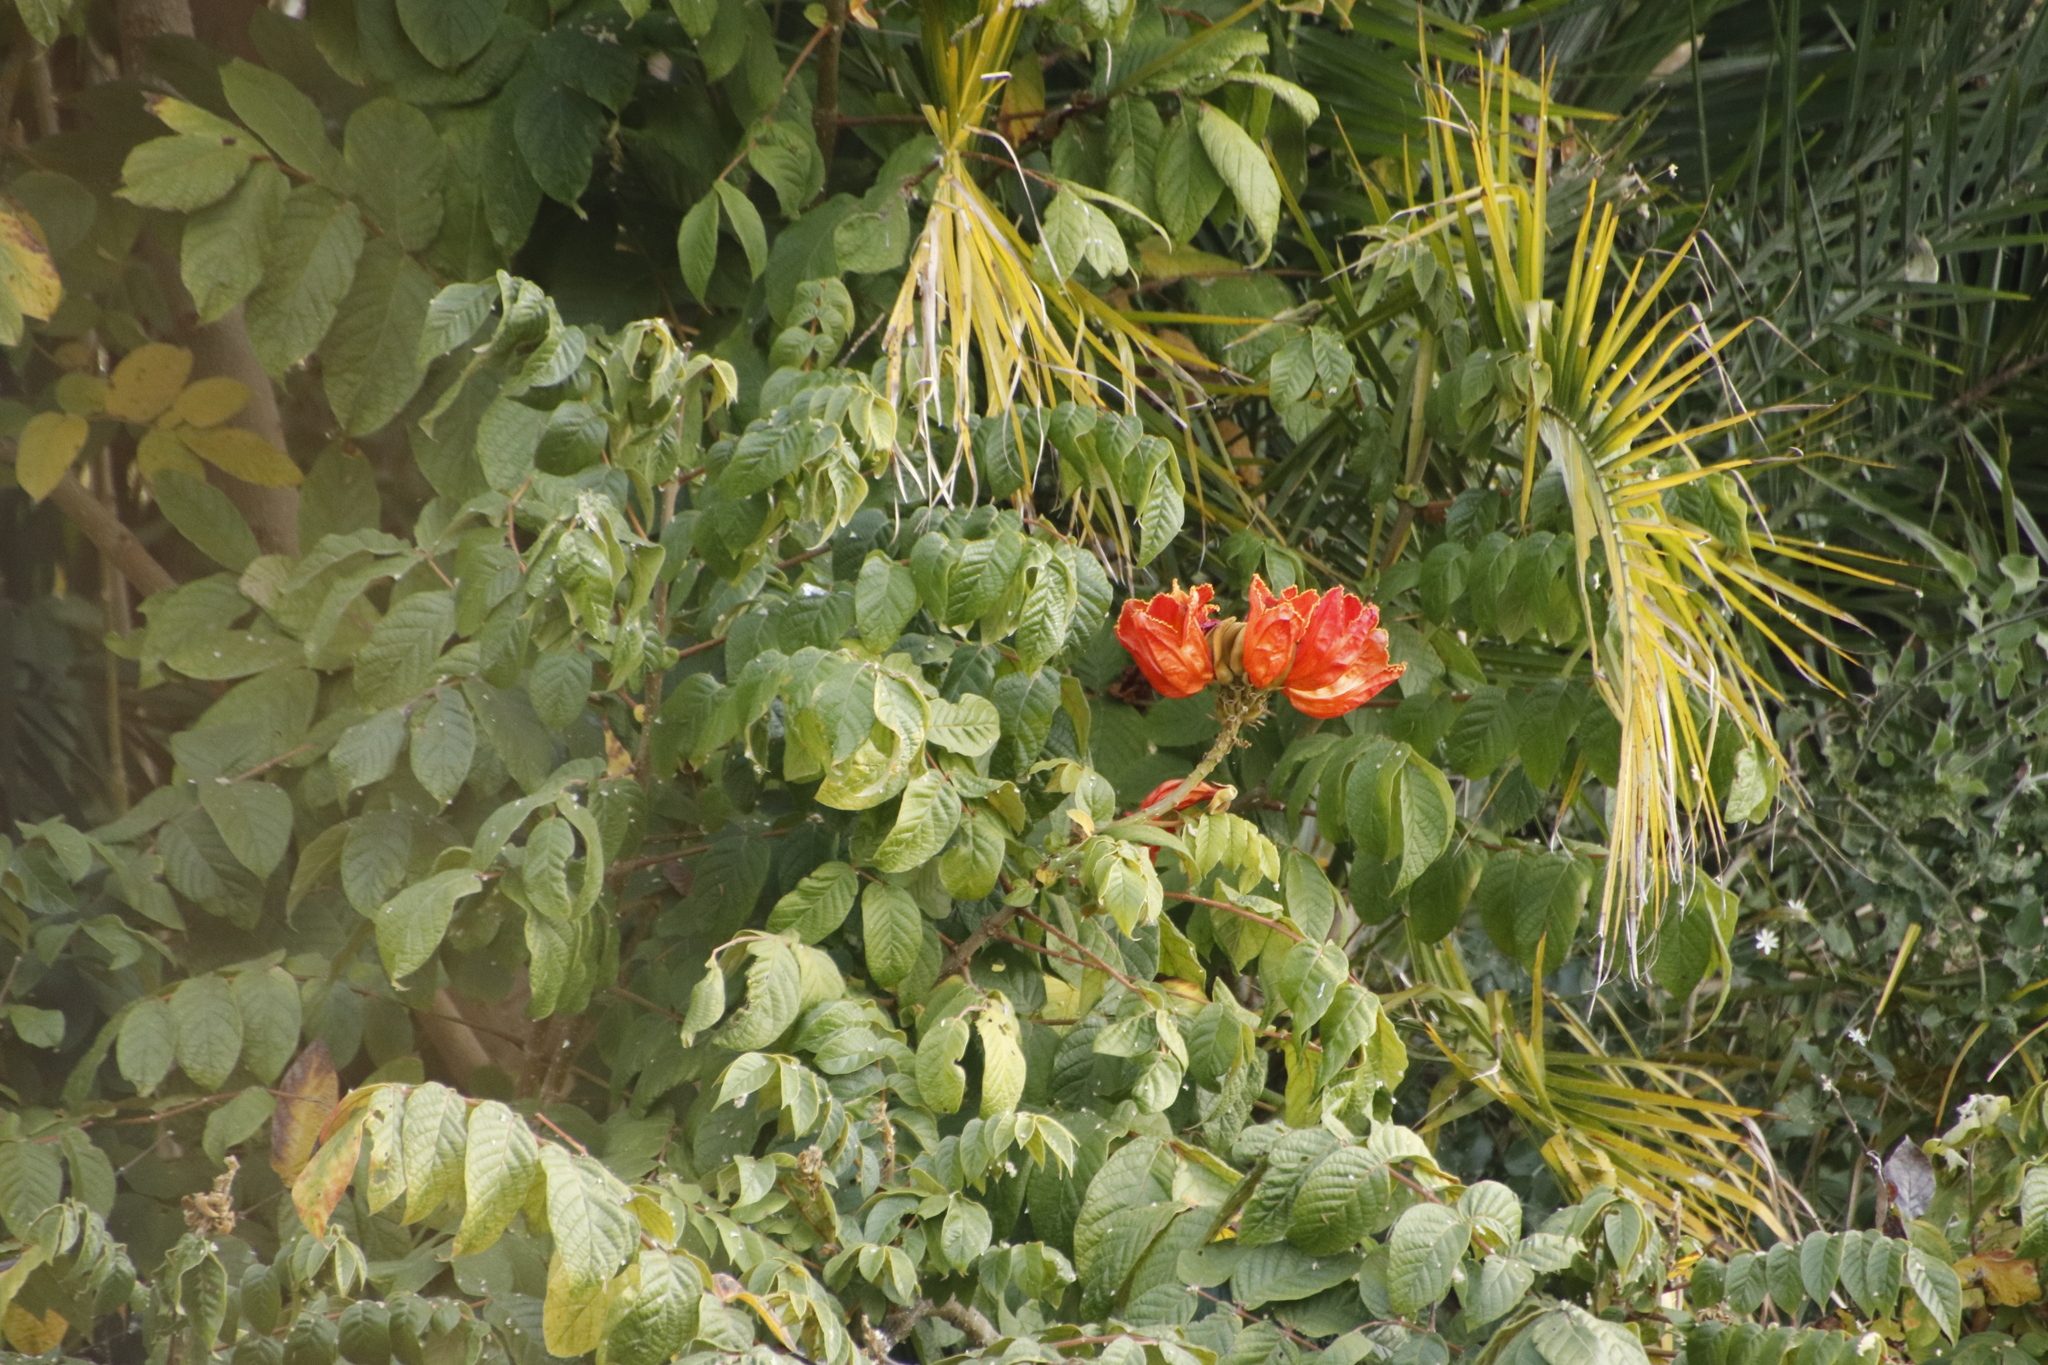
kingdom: Plantae
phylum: Tracheophyta
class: Magnoliopsida
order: Lamiales
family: Bignoniaceae
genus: Spathodea
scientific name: Spathodea campanulata
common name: African tuliptree
